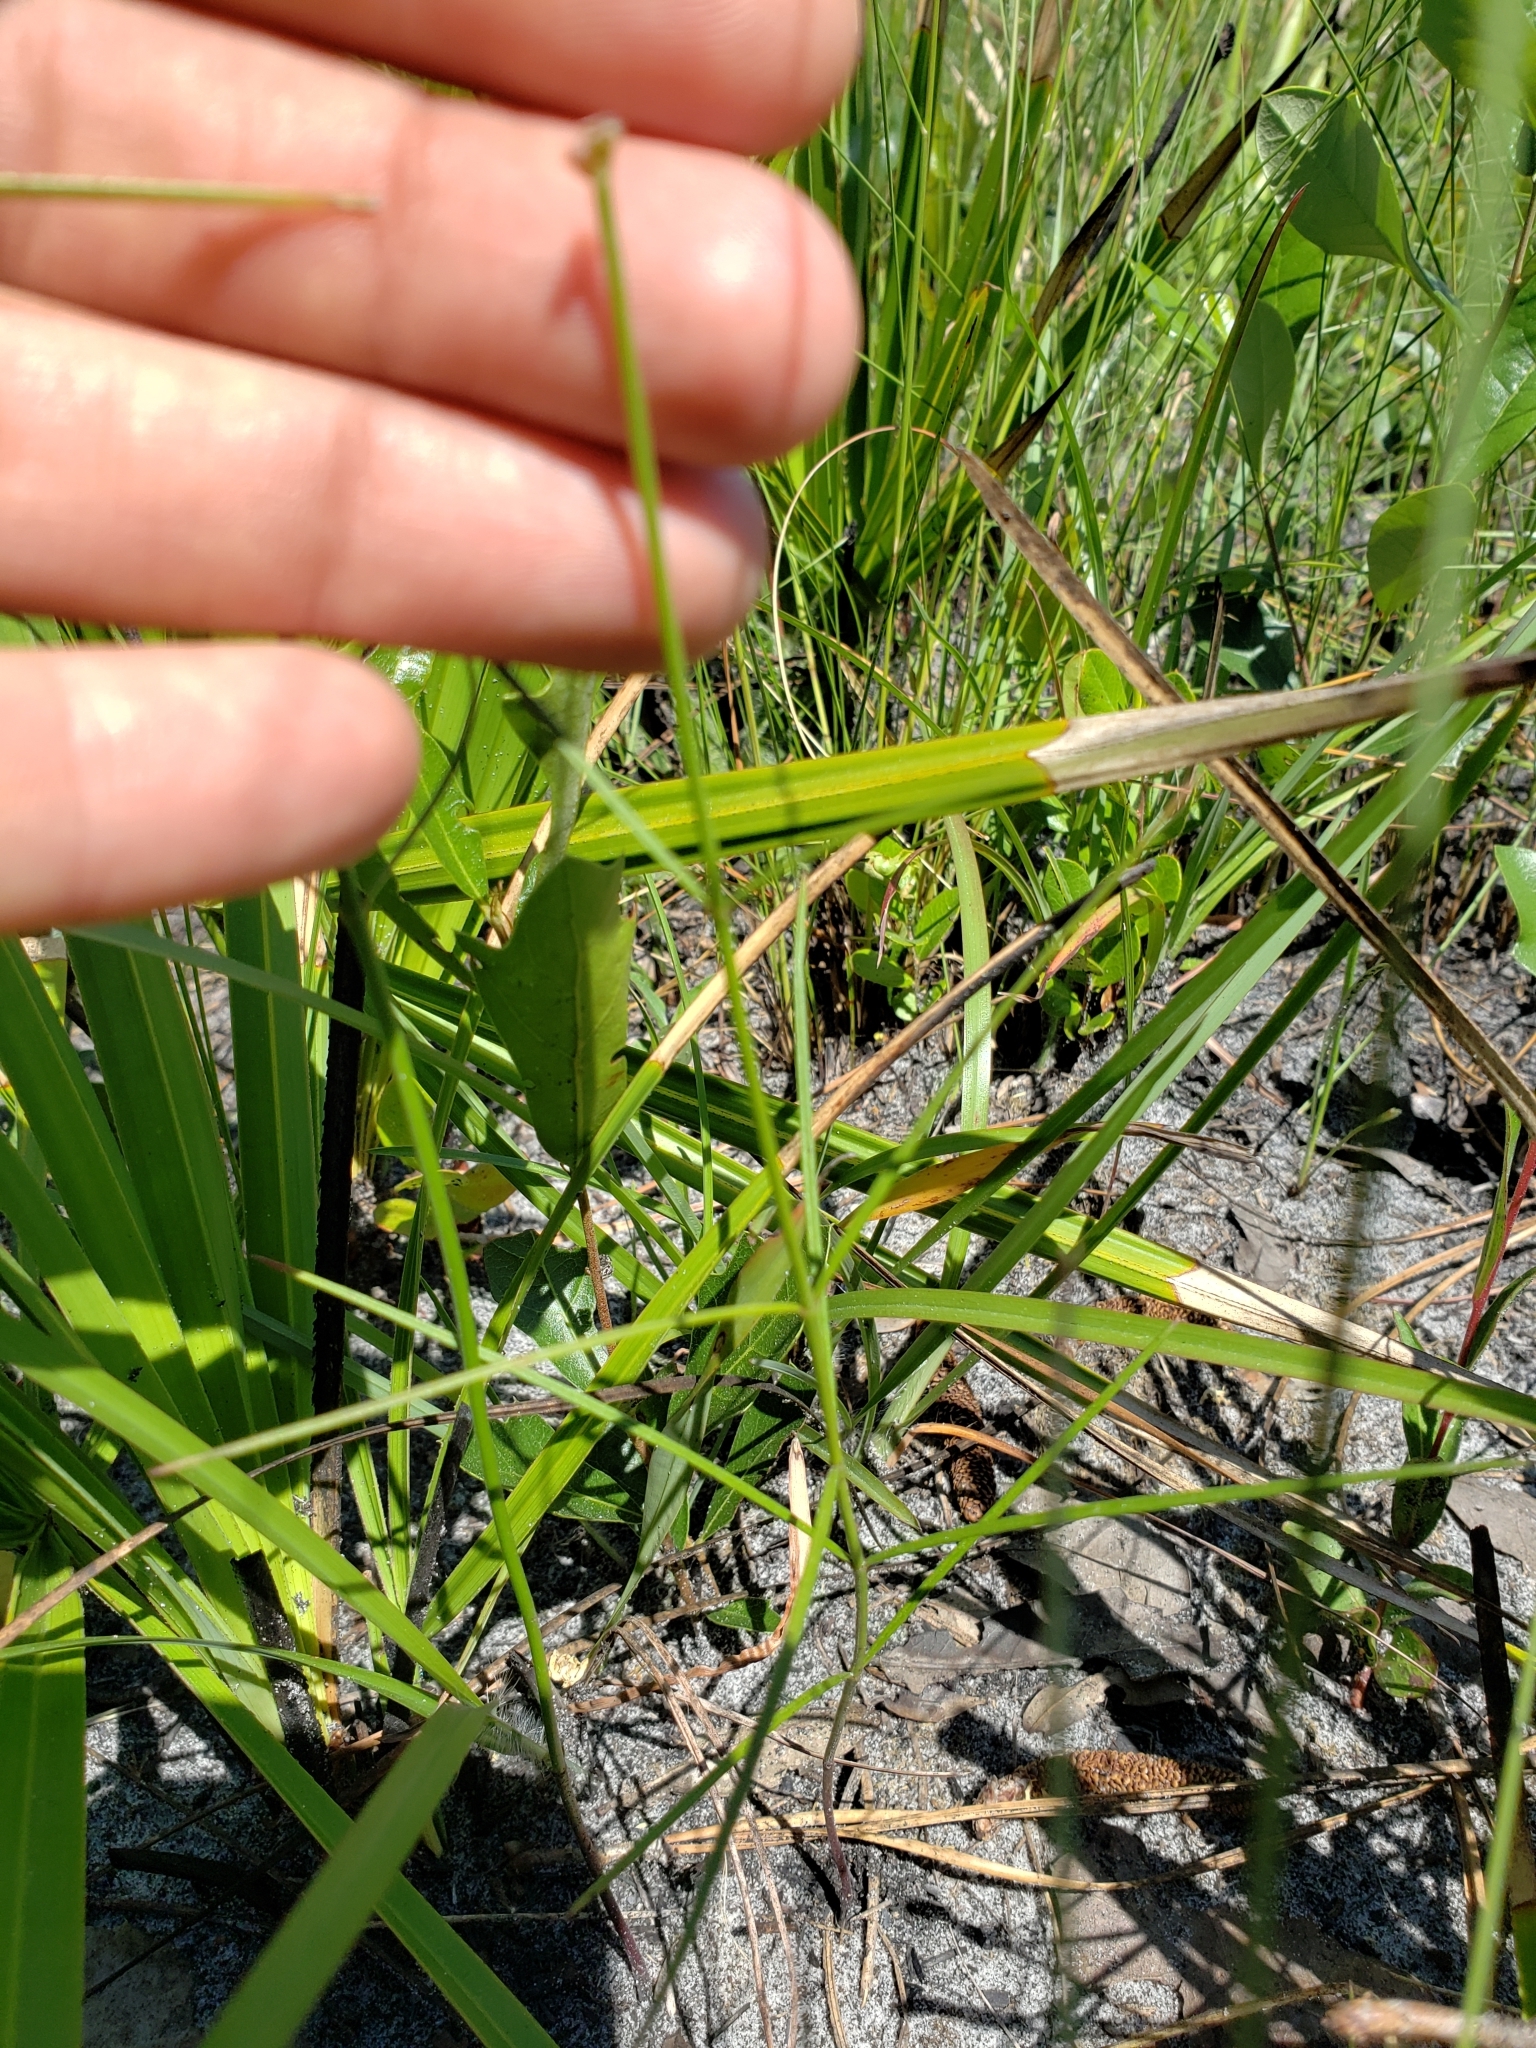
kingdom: Plantae
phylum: Tracheophyta
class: Magnoliopsida
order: Gentianales
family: Apocynaceae
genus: Asclepias
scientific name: Asclepias feayi
